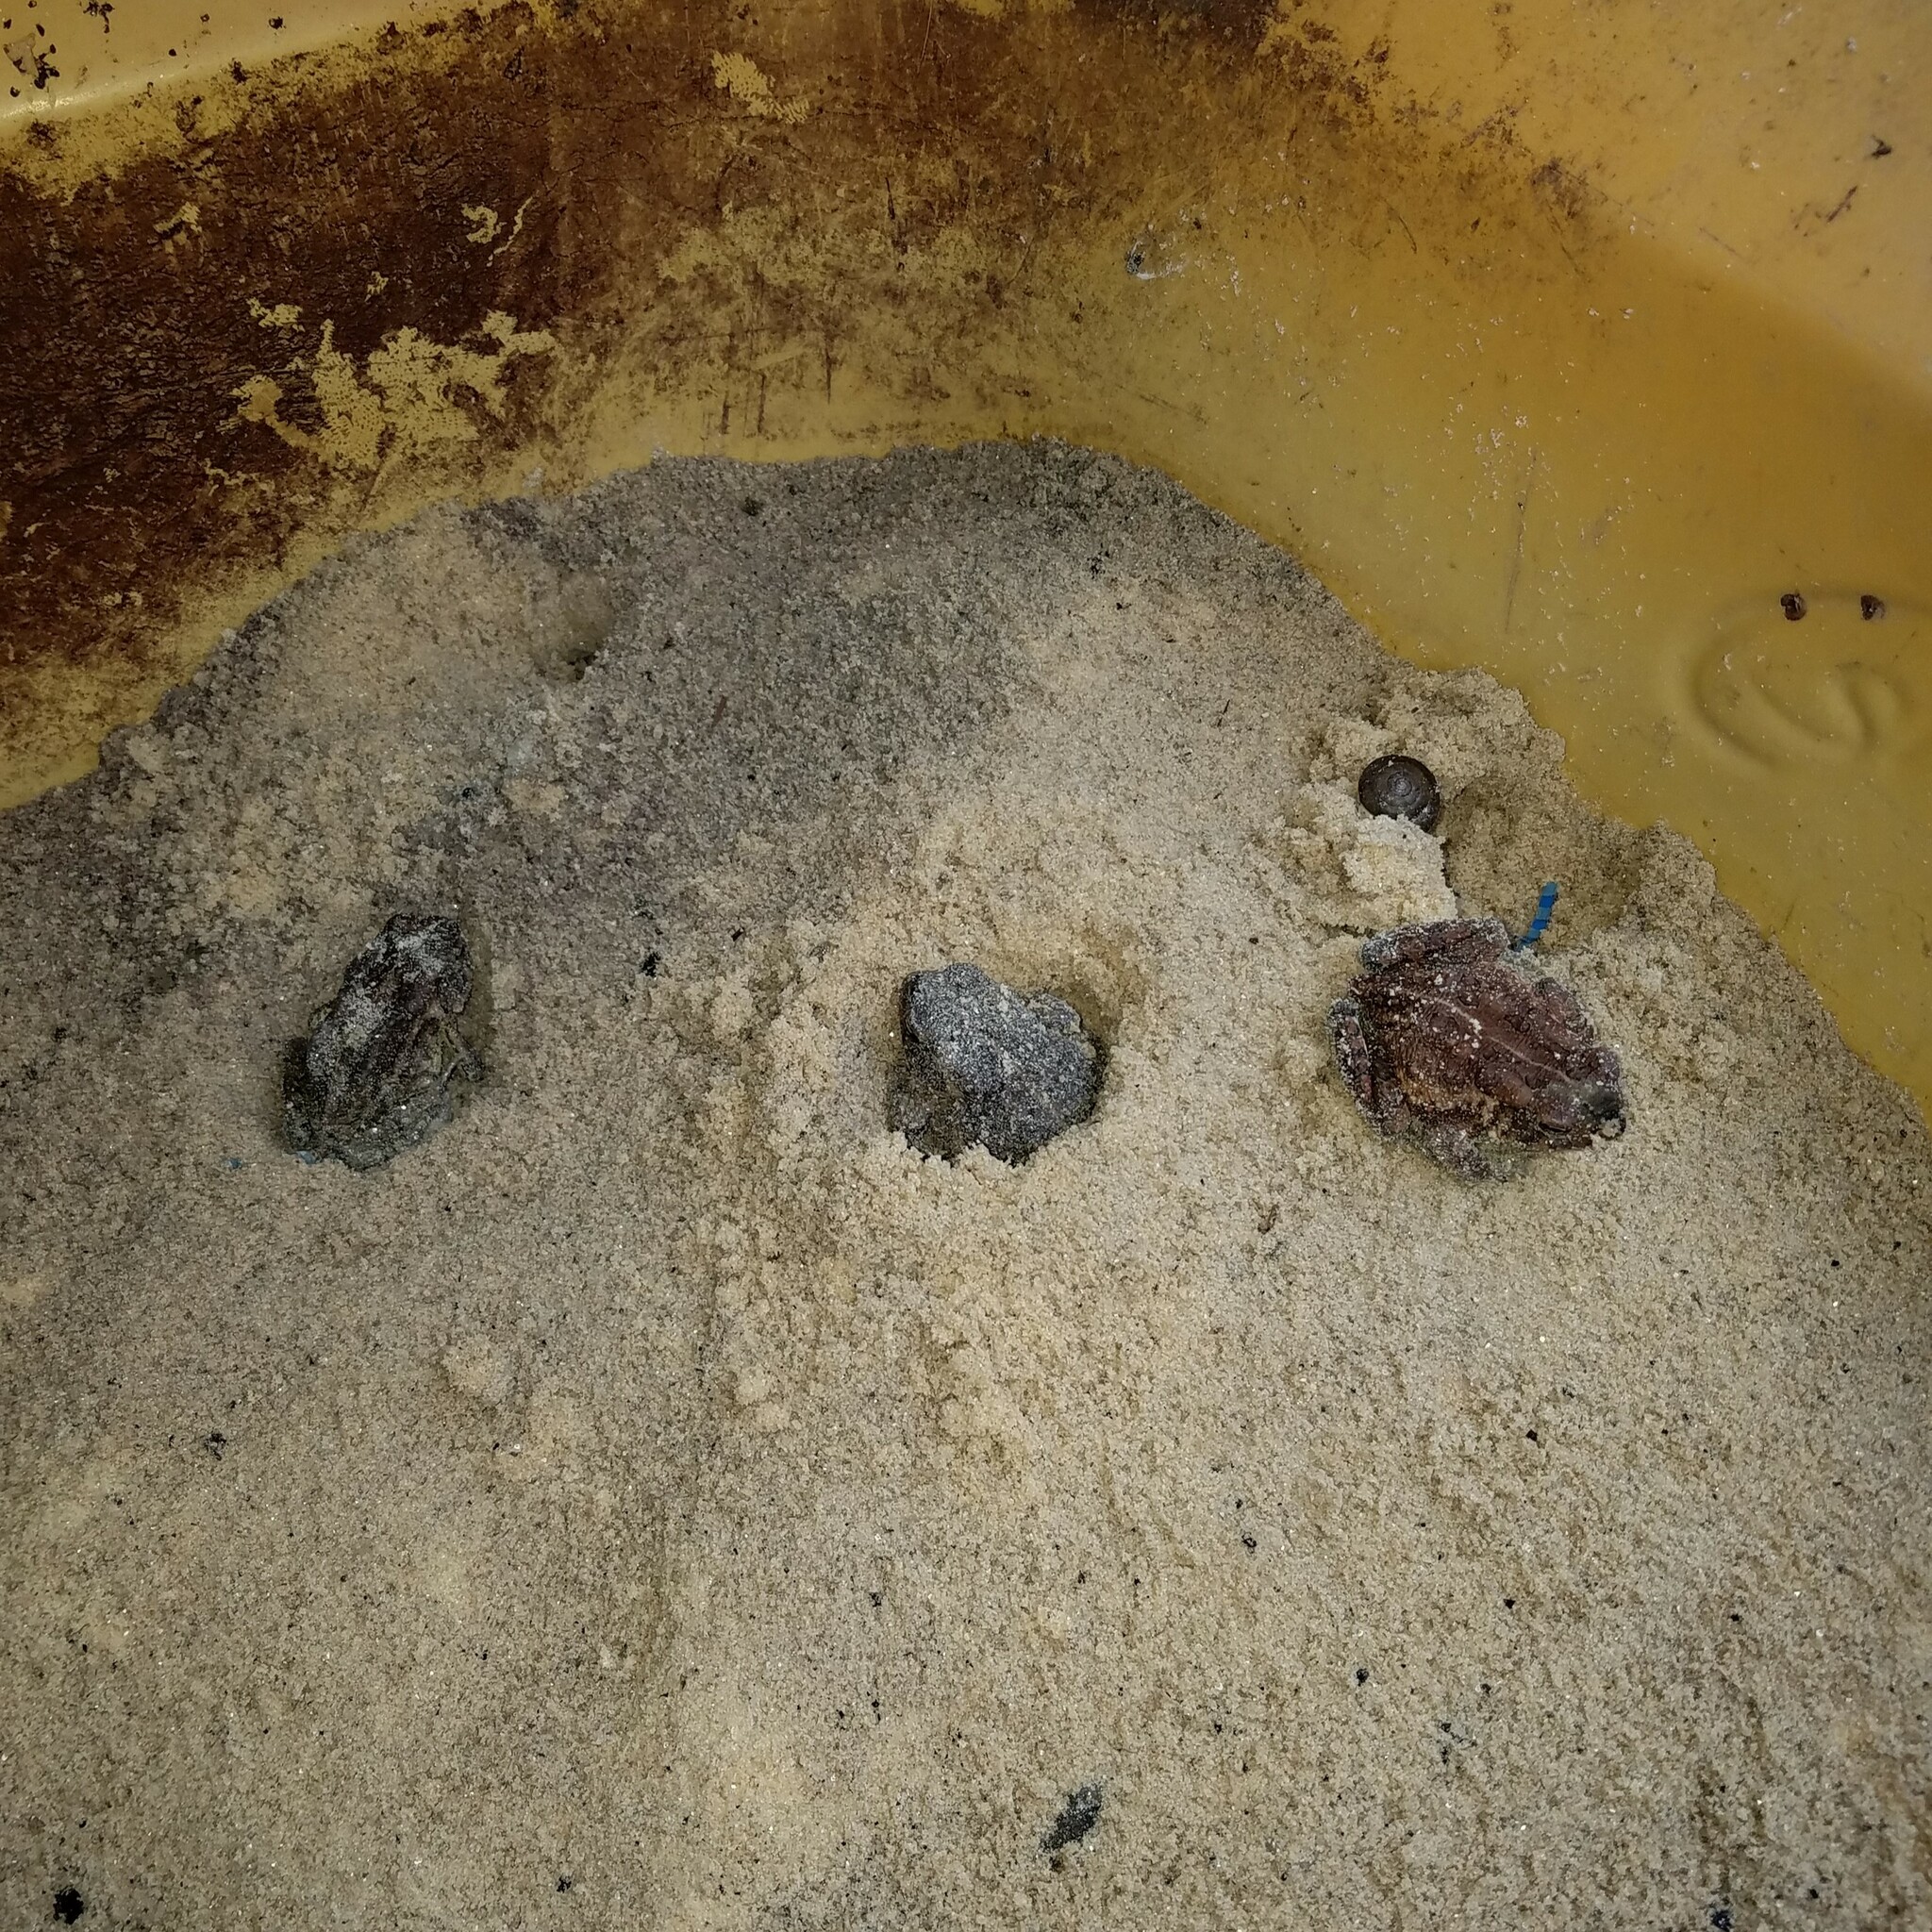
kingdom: Animalia
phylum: Chordata
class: Amphibia
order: Anura
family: Bufonidae
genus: Anaxyrus
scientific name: Anaxyrus fowleri
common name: Fowler's toad
